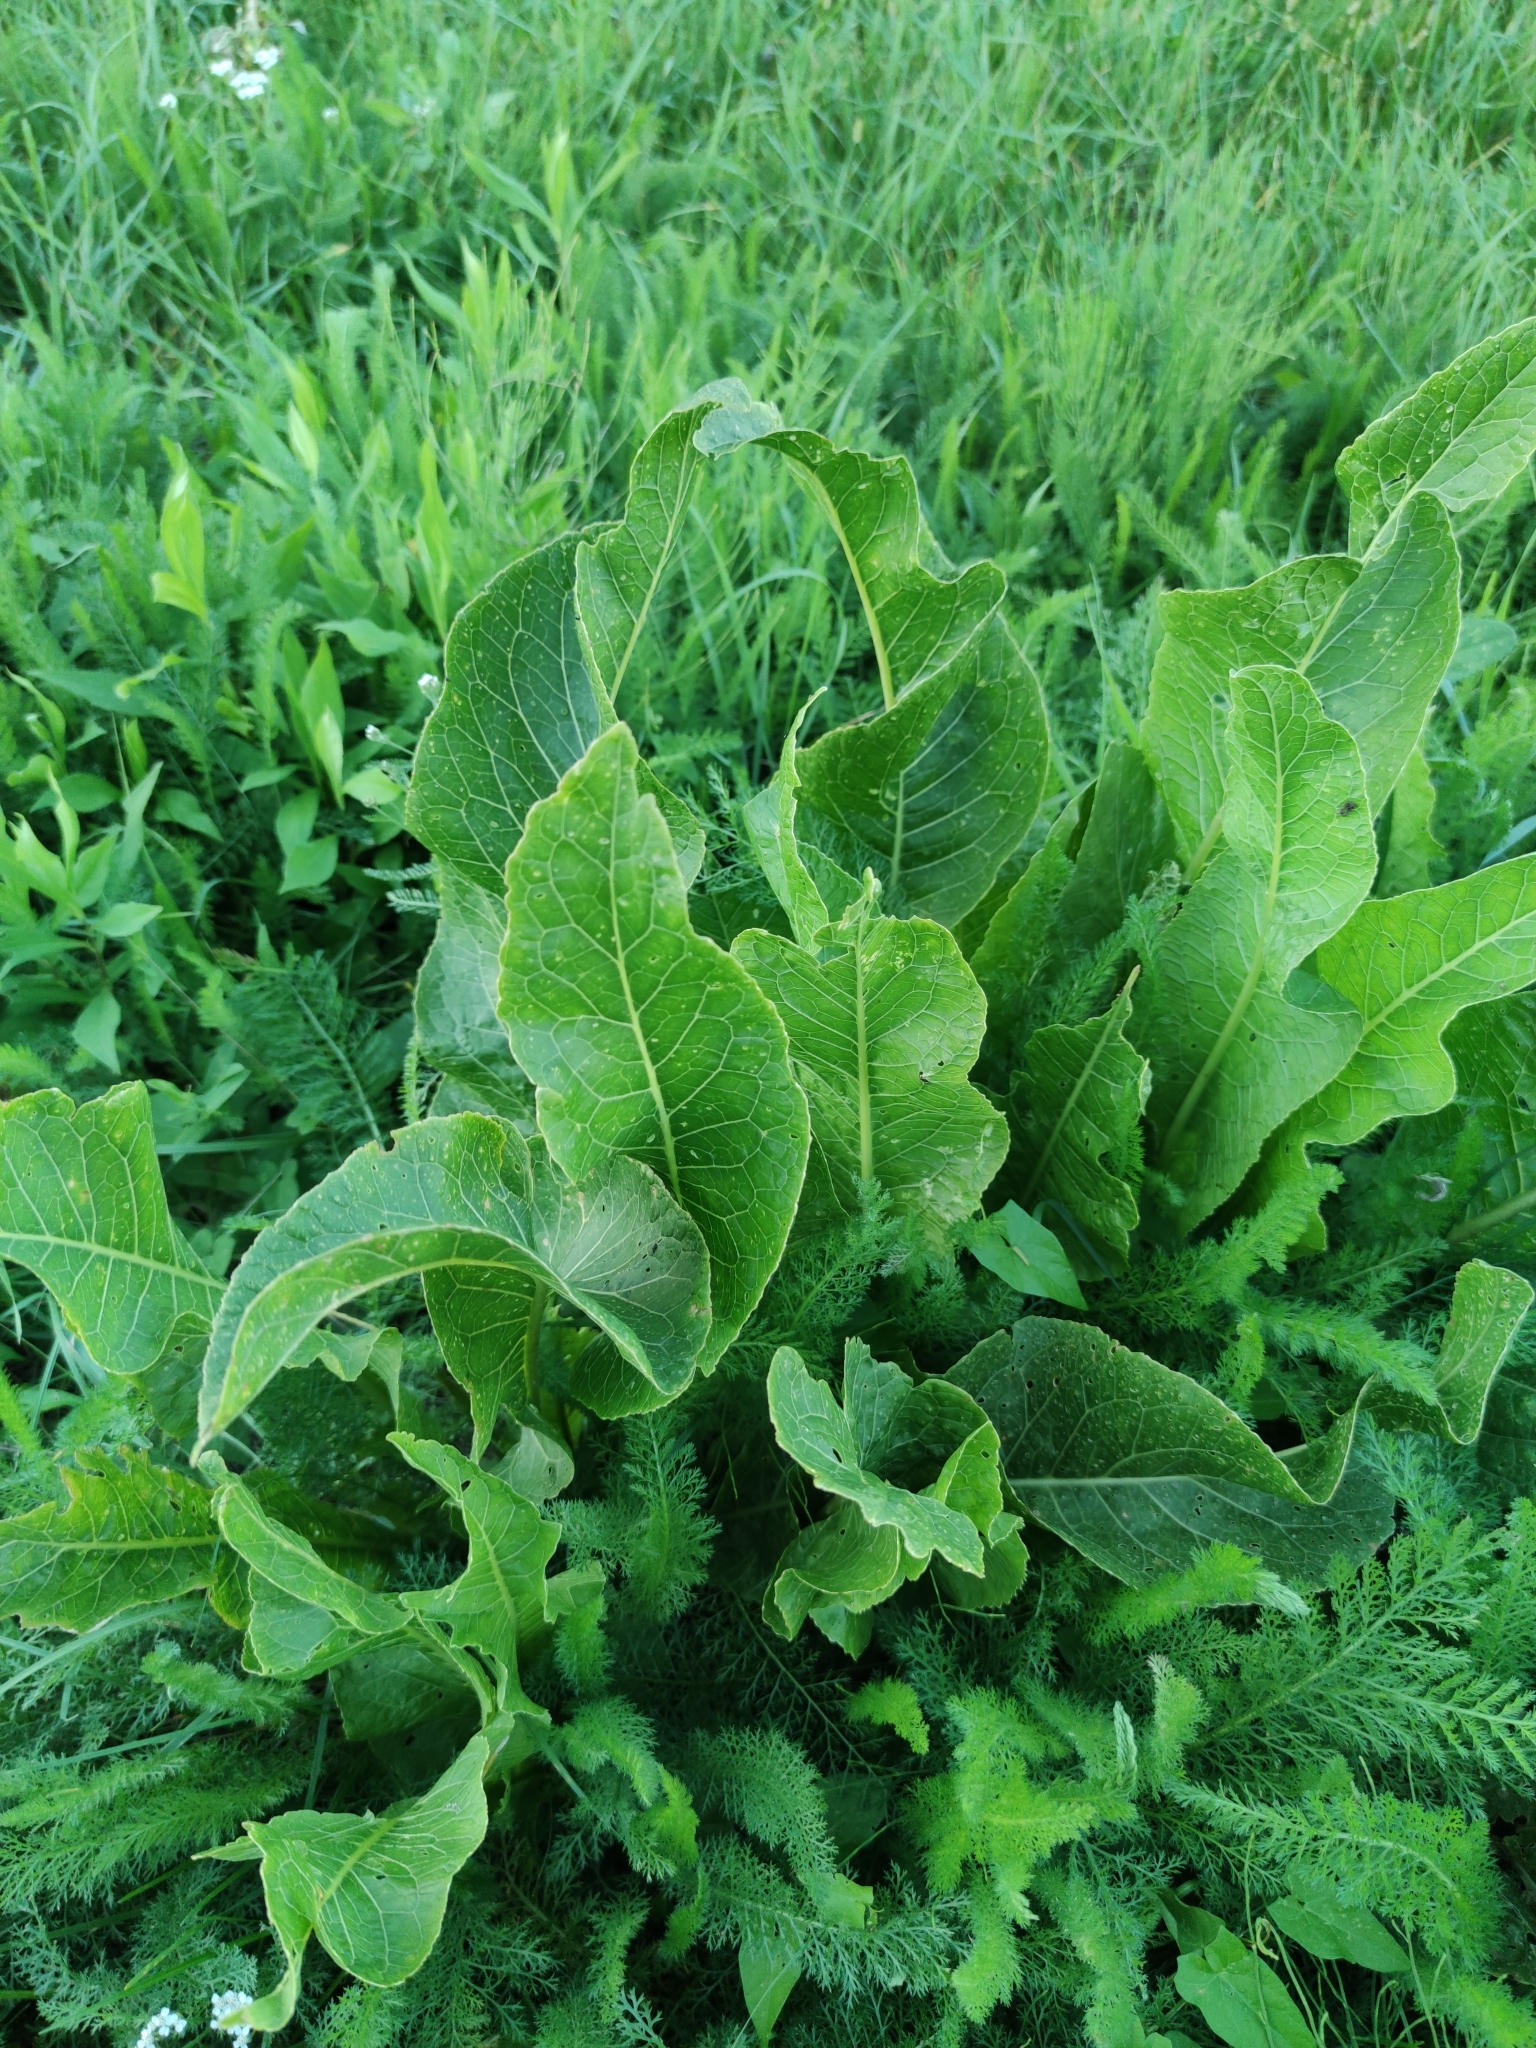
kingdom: Plantae
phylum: Tracheophyta
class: Magnoliopsida
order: Brassicales
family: Brassicaceae
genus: Armoracia
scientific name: Armoracia rusticana
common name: Horseradish
